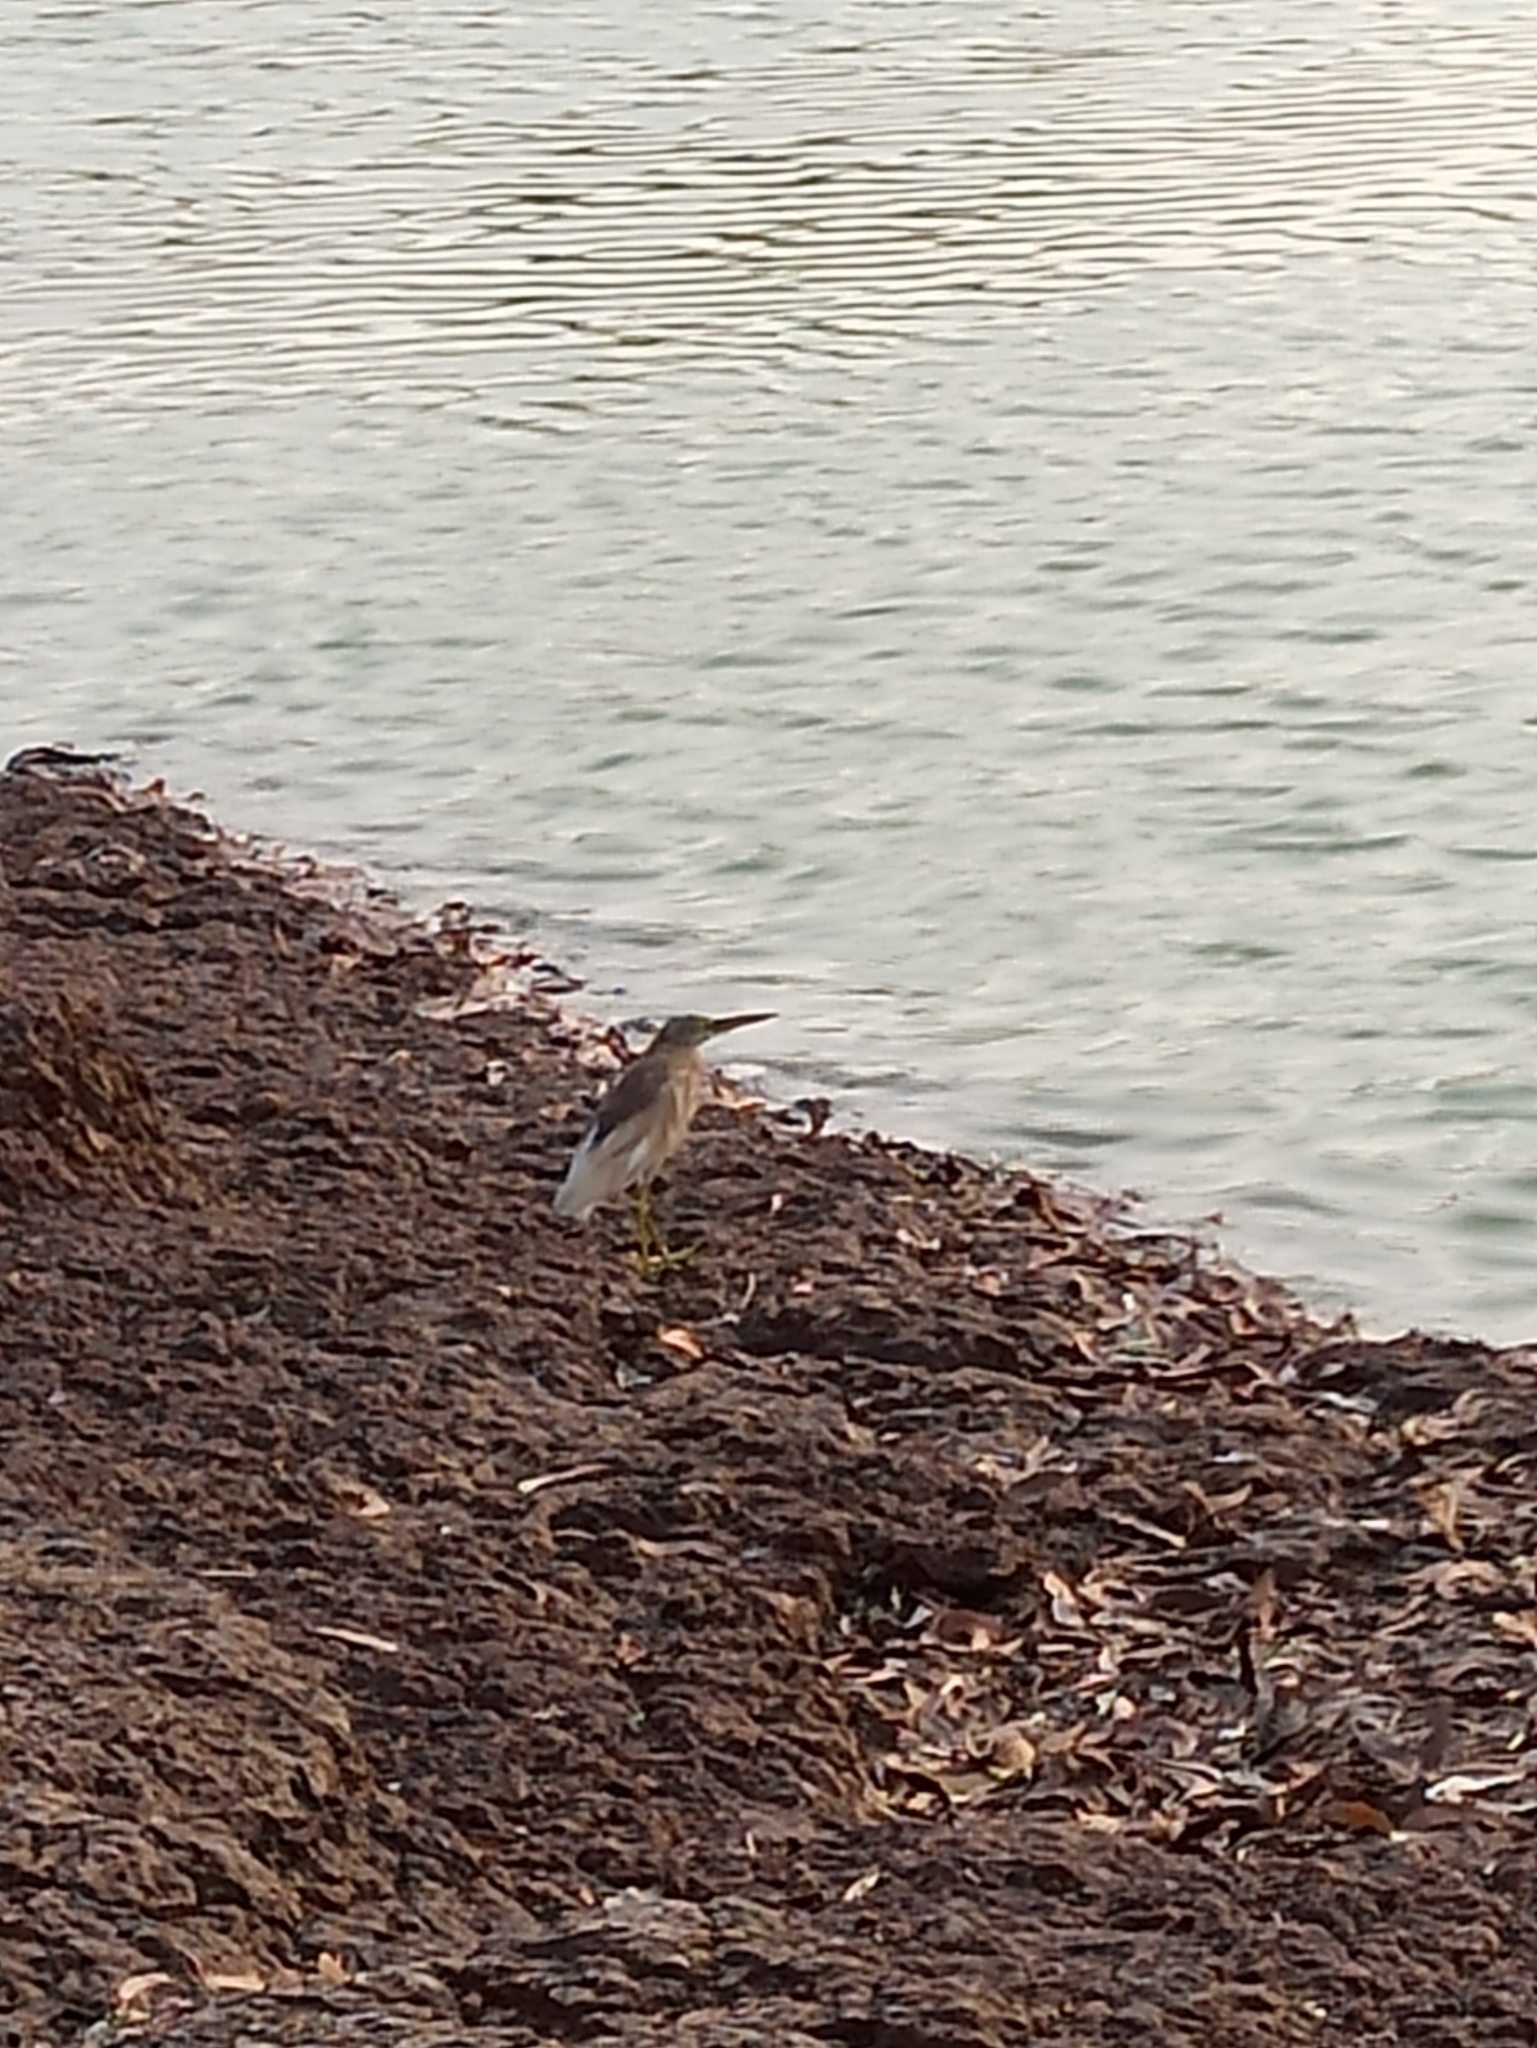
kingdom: Animalia
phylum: Chordata
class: Aves
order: Pelecaniformes
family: Ardeidae
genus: Ardeola
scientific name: Ardeola grayii
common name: Indian pond heron
